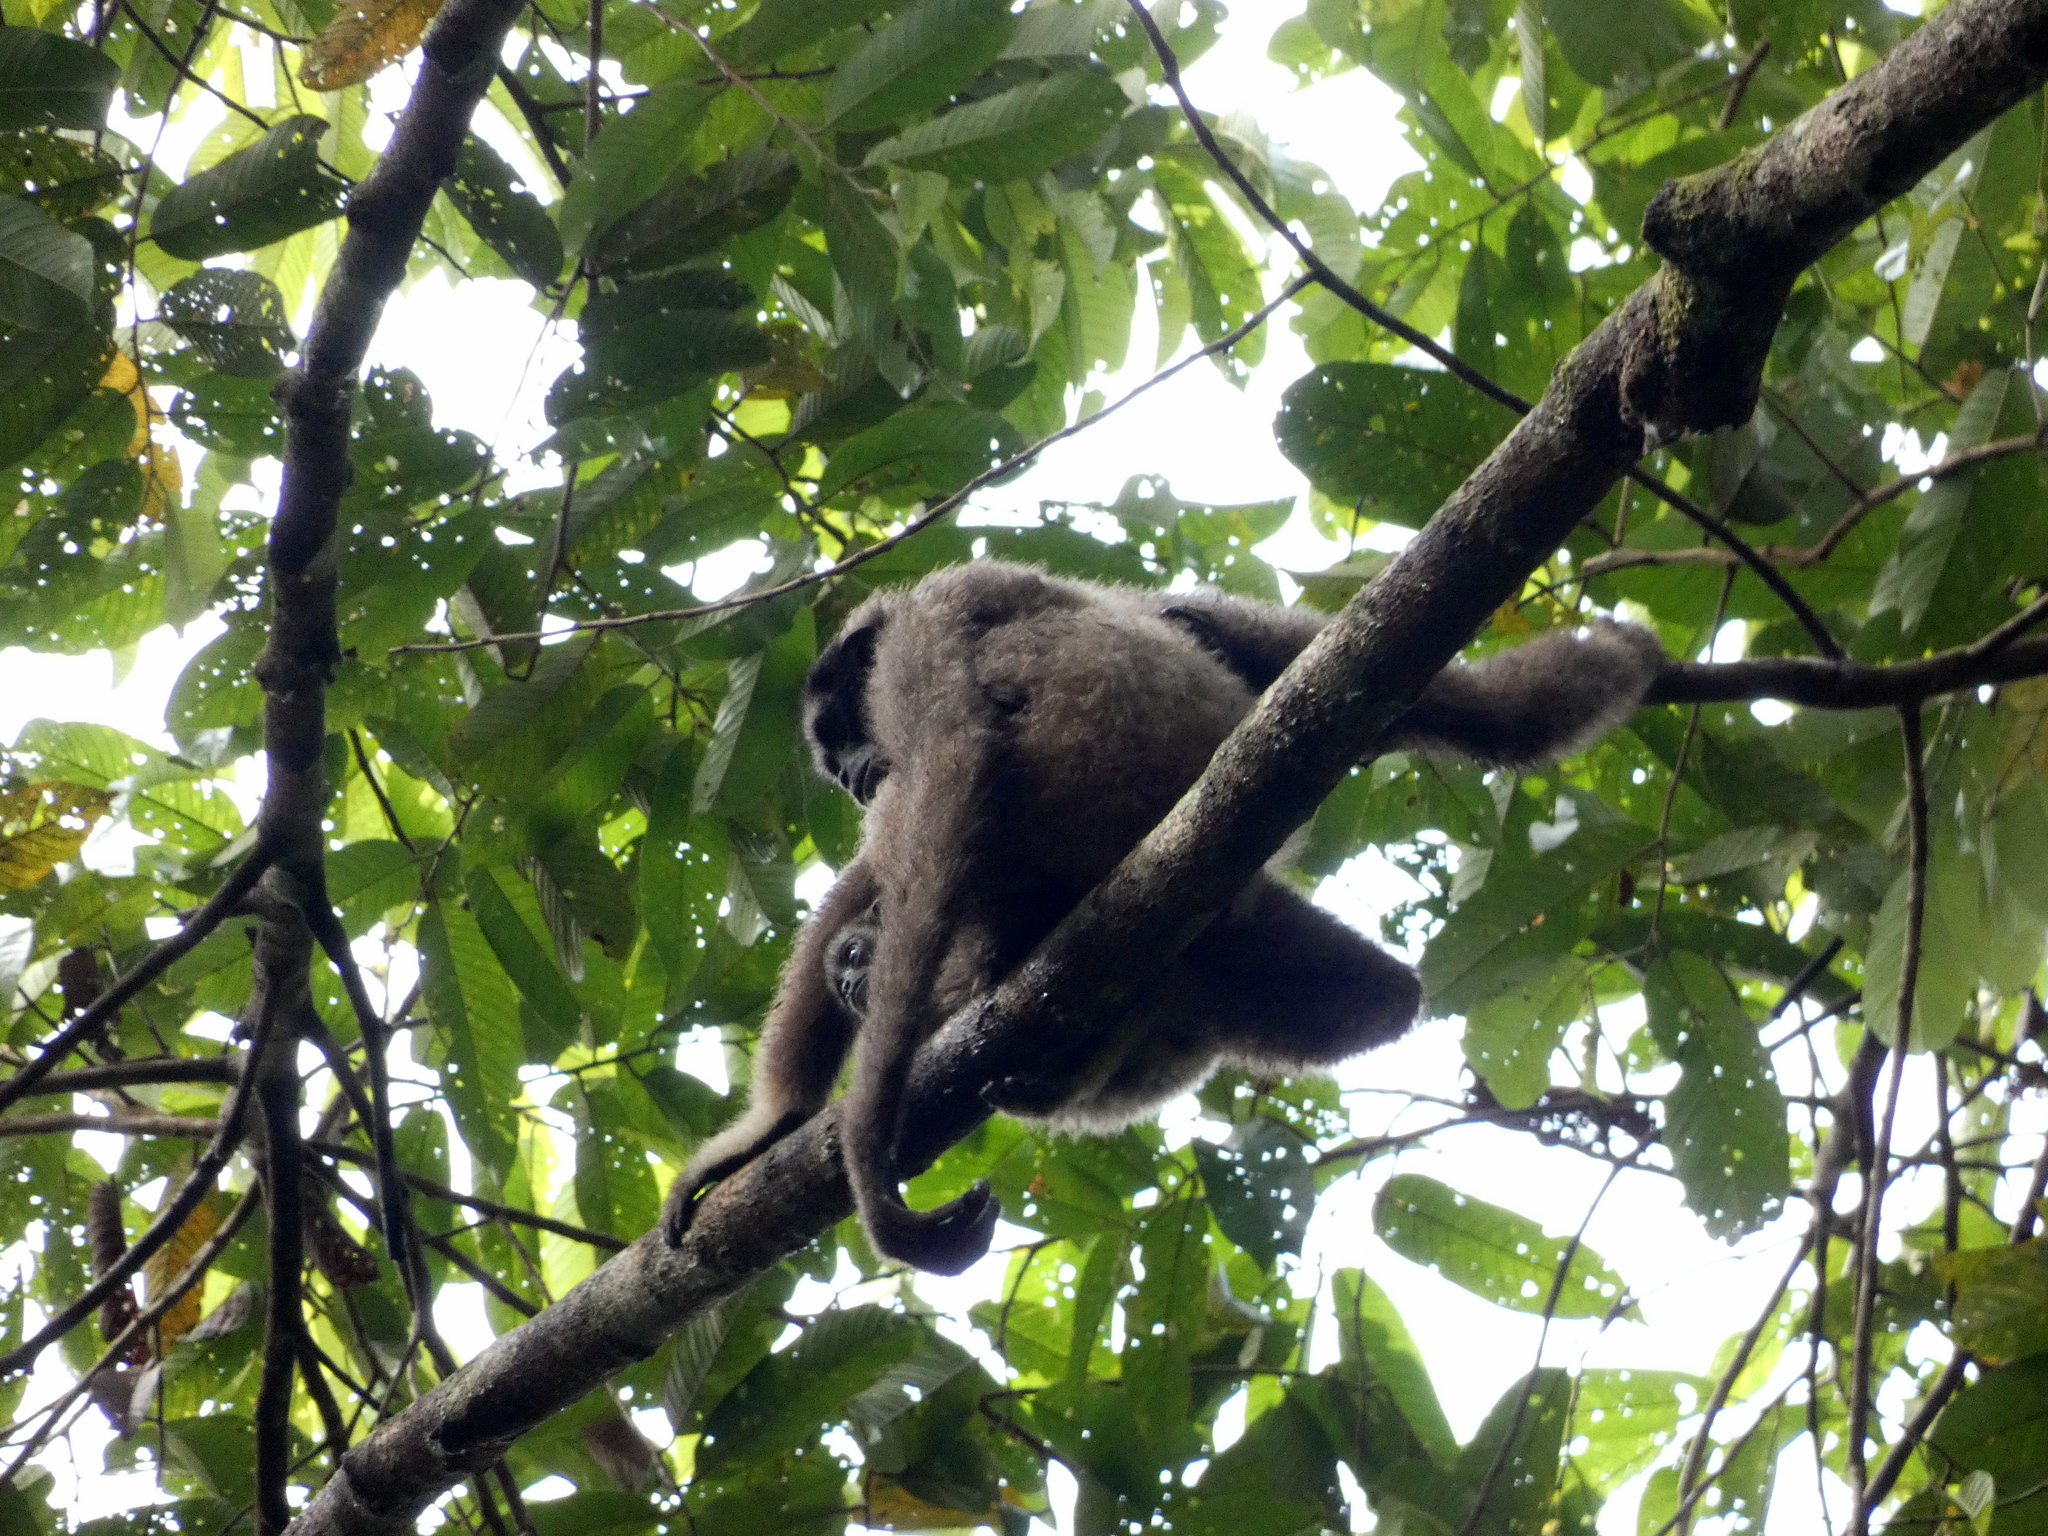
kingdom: Animalia
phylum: Chordata
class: Mammalia
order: Primates
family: Hylobatidae
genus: Hylobates
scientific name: Hylobates funereus
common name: East bornean gray gibbon
